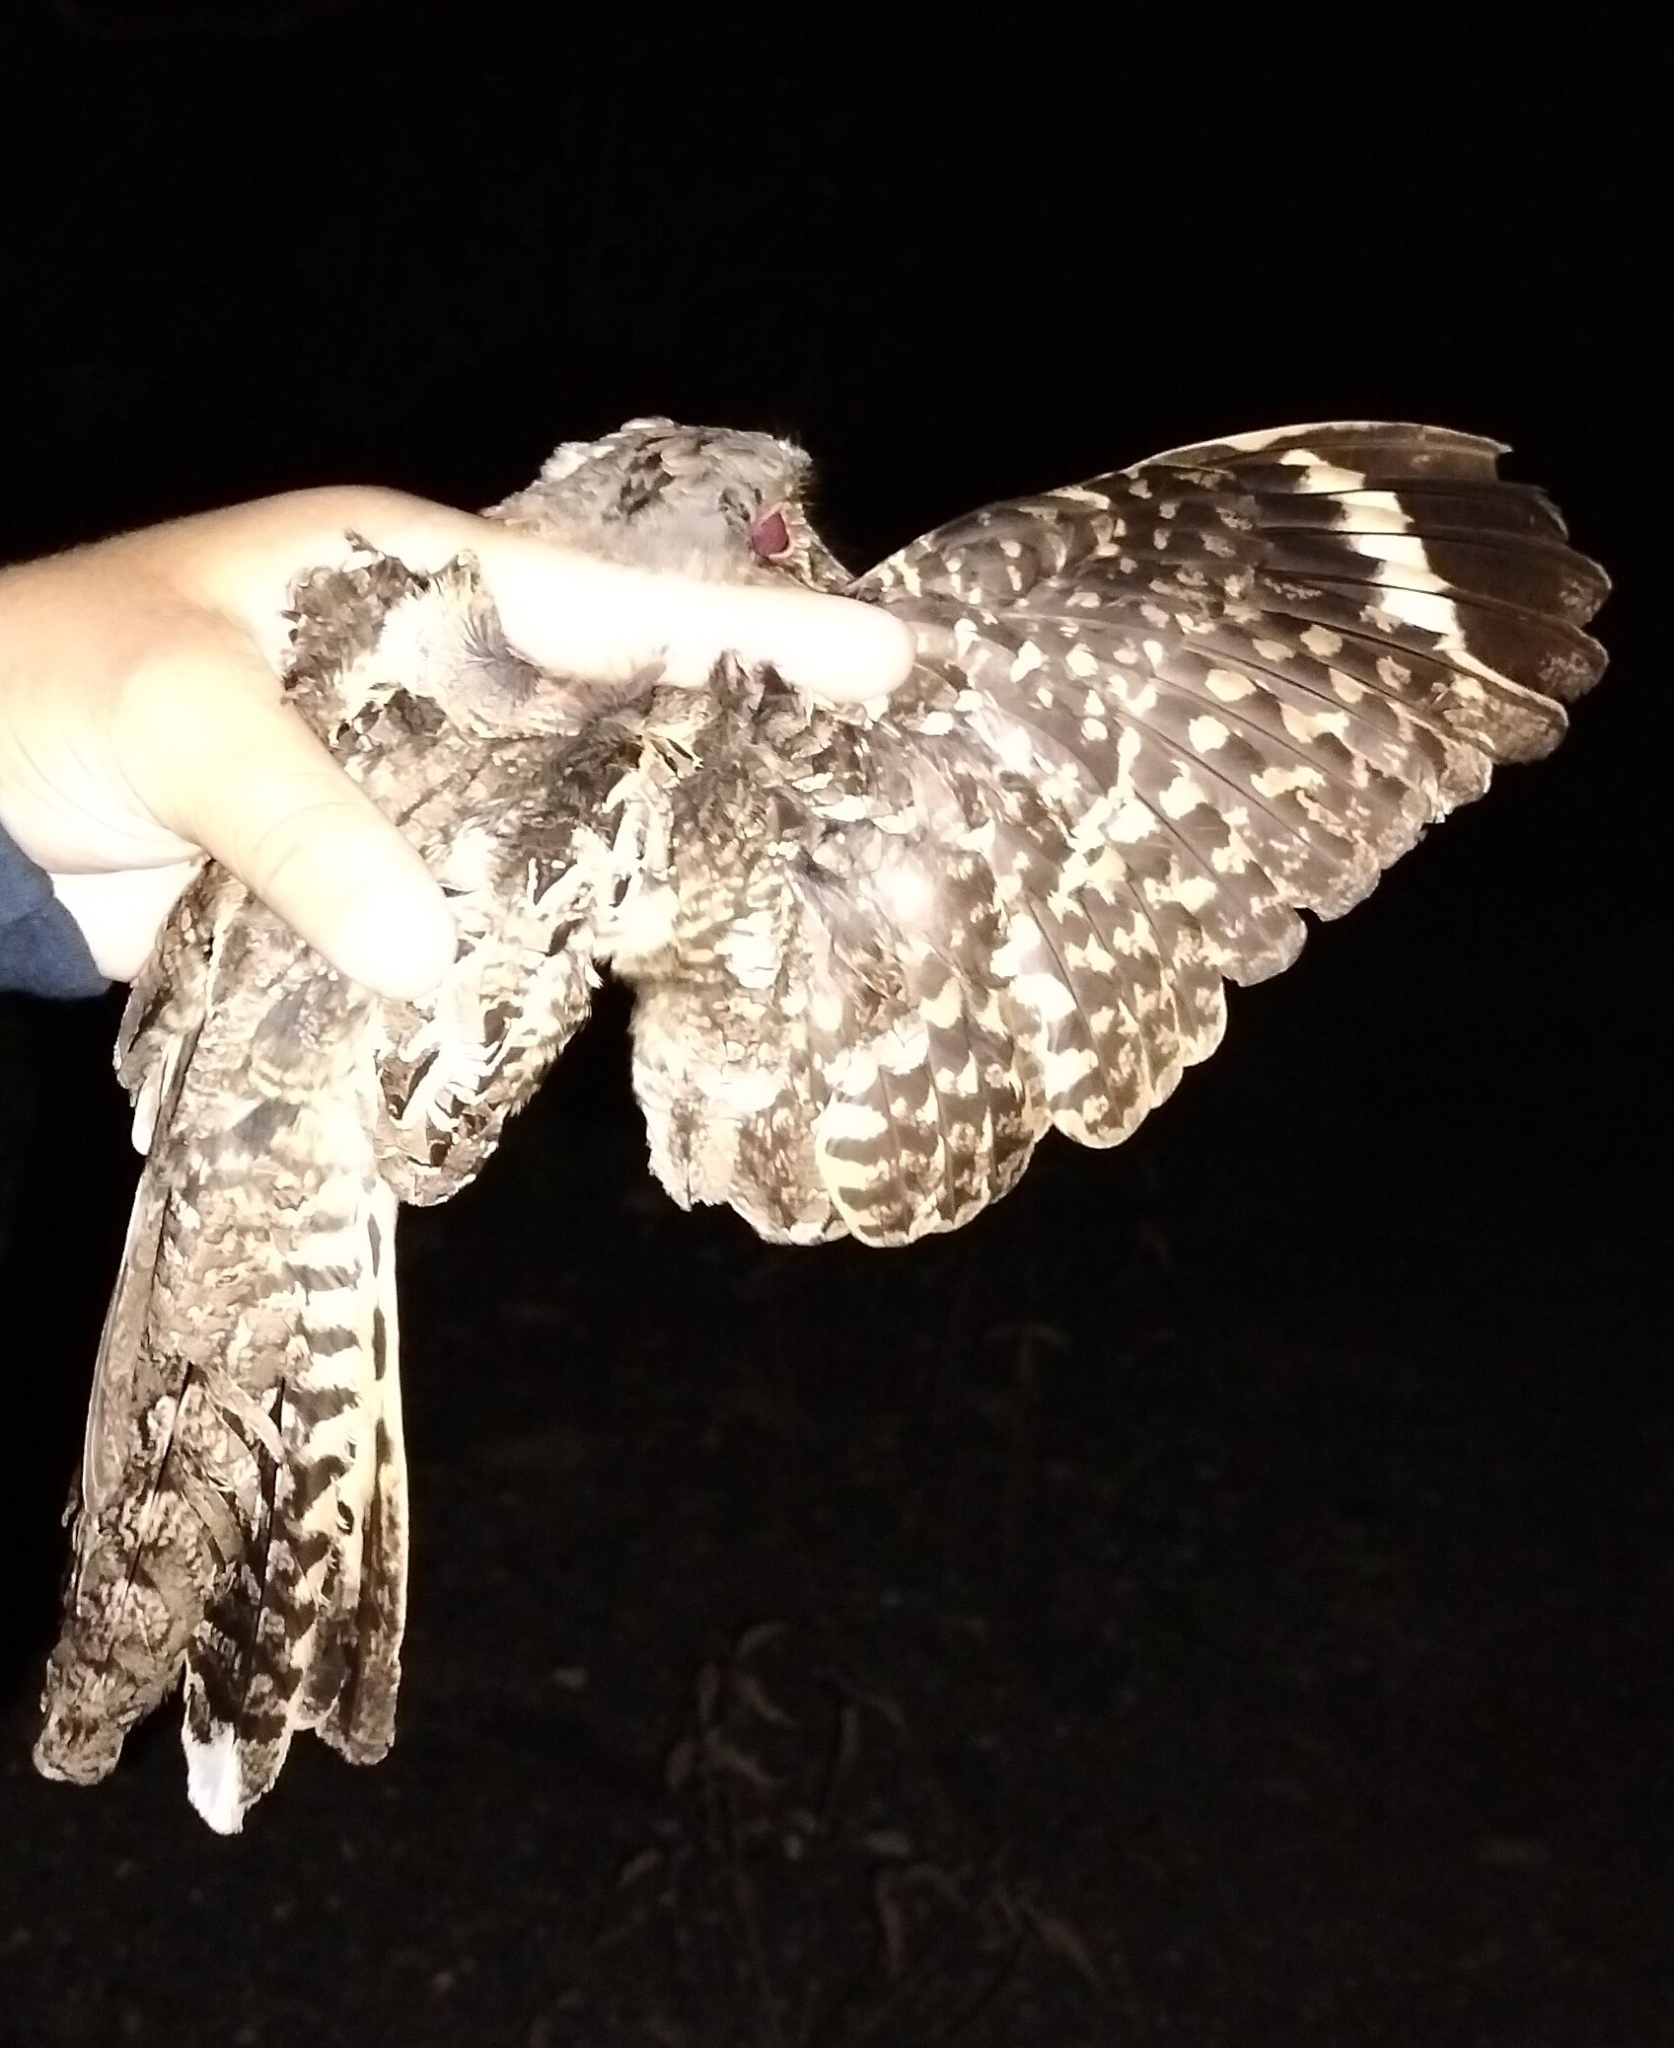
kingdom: Animalia
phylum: Chordata
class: Aves
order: Caprimulgiformes
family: Caprimulgidae
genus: Nyctidromus
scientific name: Nyctidromus albicollis
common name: Pauraque
